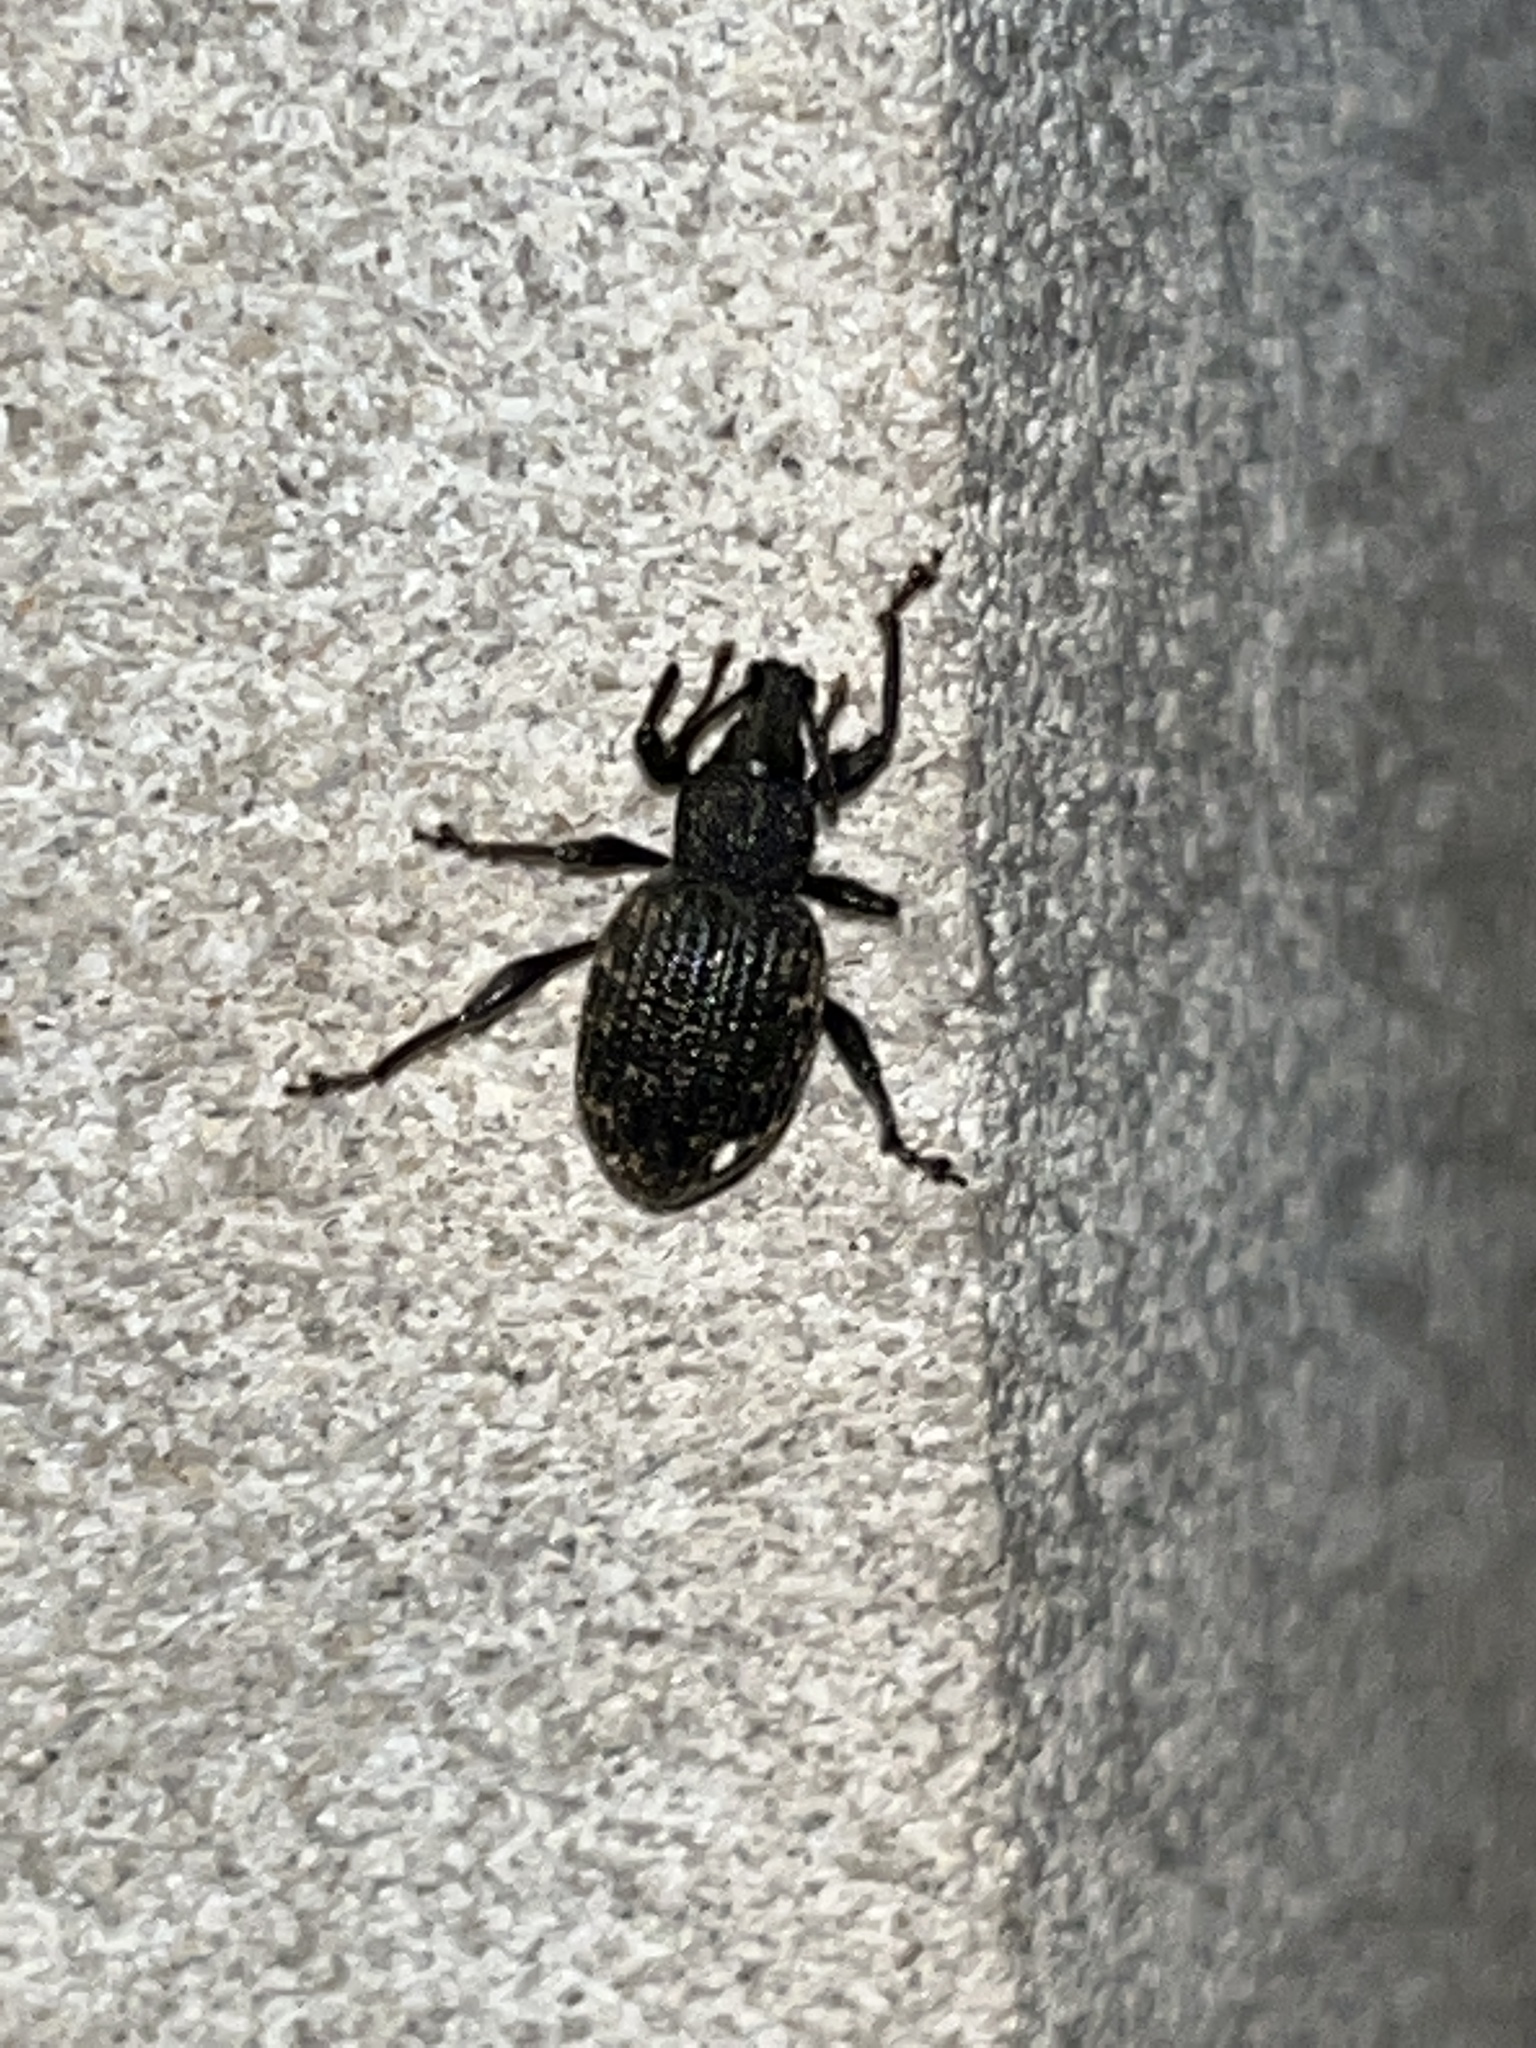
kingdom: Animalia
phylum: Arthropoda
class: Insecta
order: Coleoptera
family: Curculionidae
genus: Otiorhynchus
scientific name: Otiorhynchus sulcatus
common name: Black vine weevil
